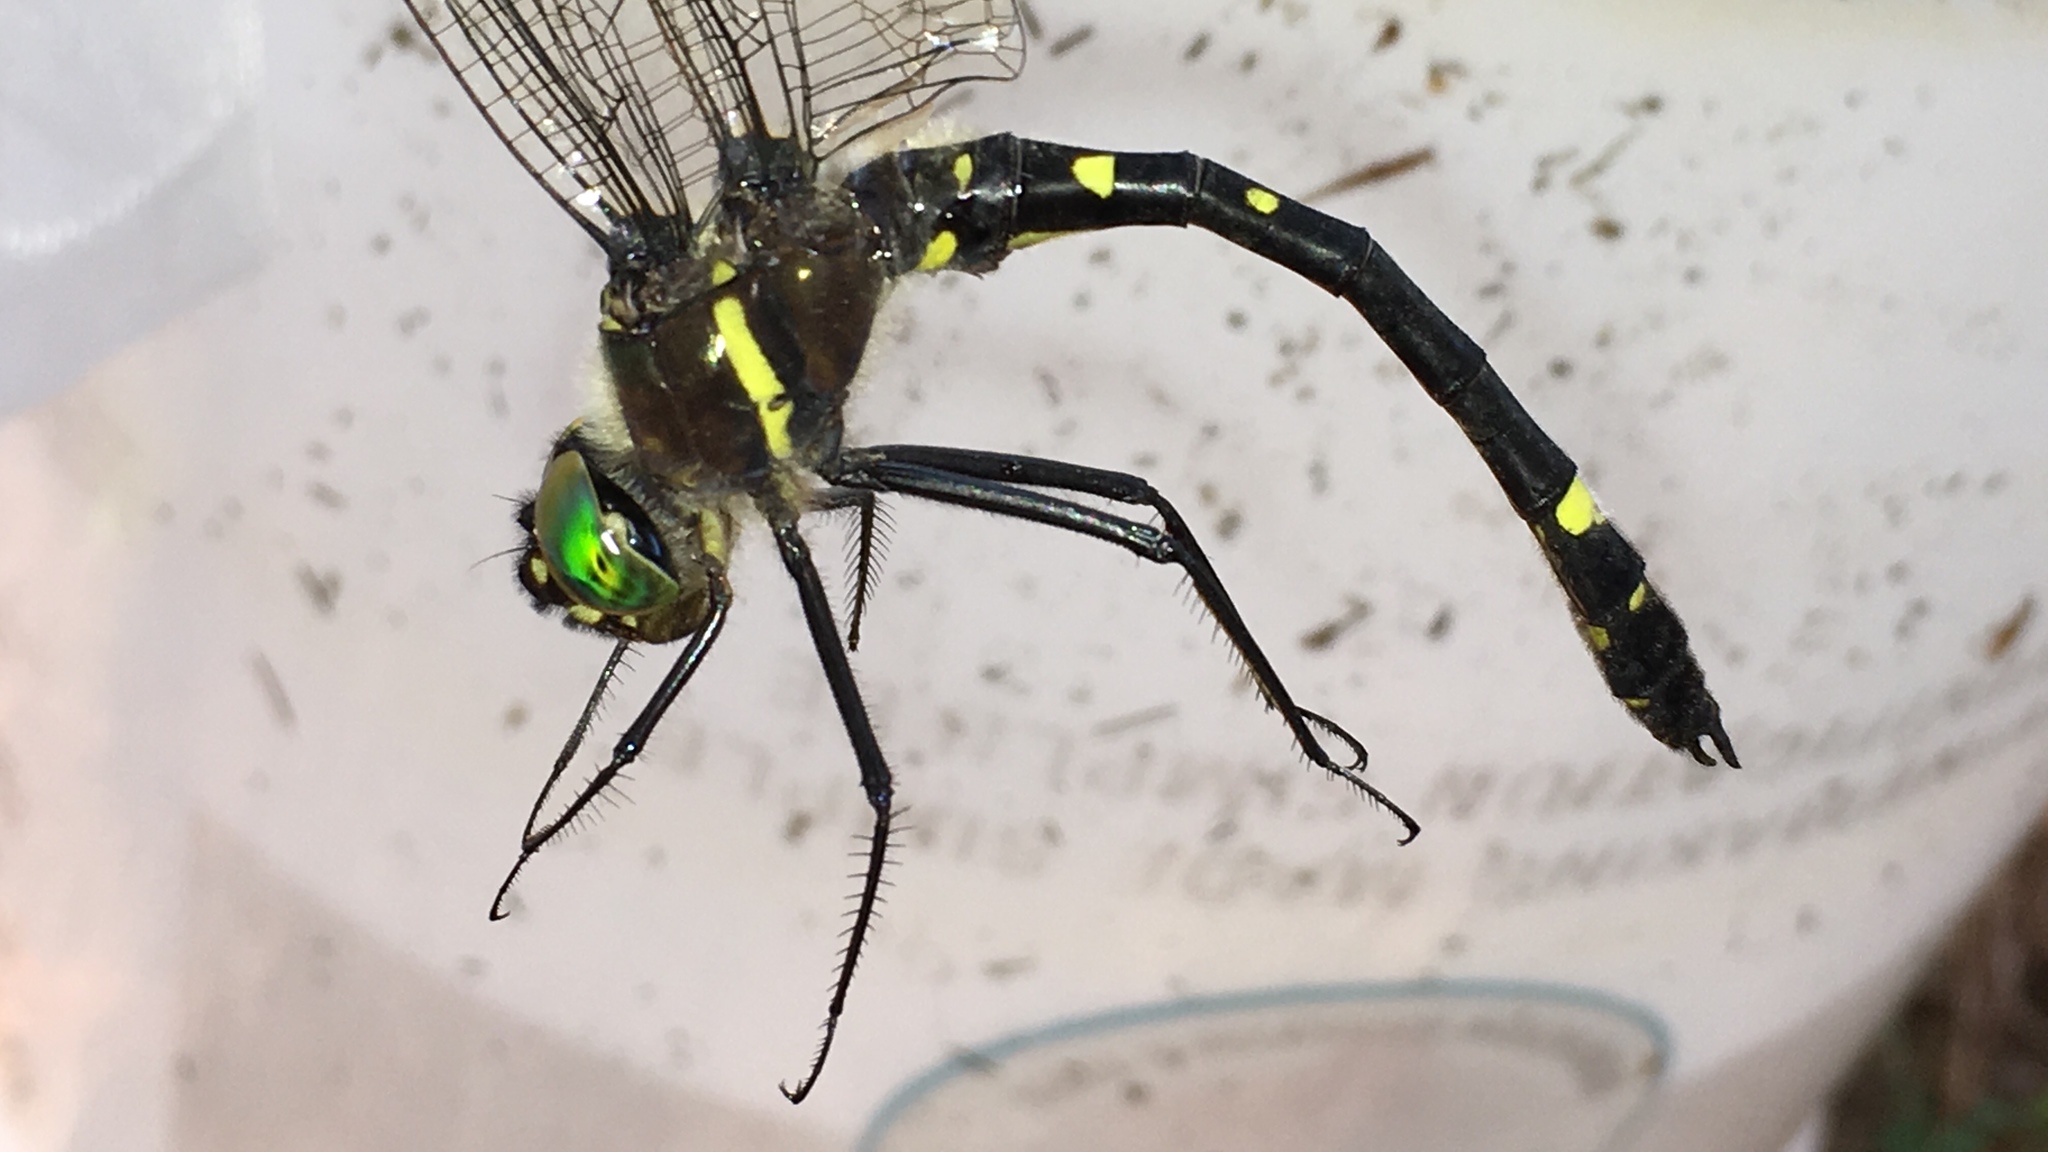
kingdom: Animalia
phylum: Arthropoda
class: Insecta
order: Odonata
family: Macromiidae
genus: Macromia
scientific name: Macromia illinoiensis
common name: Swift river cruiser
